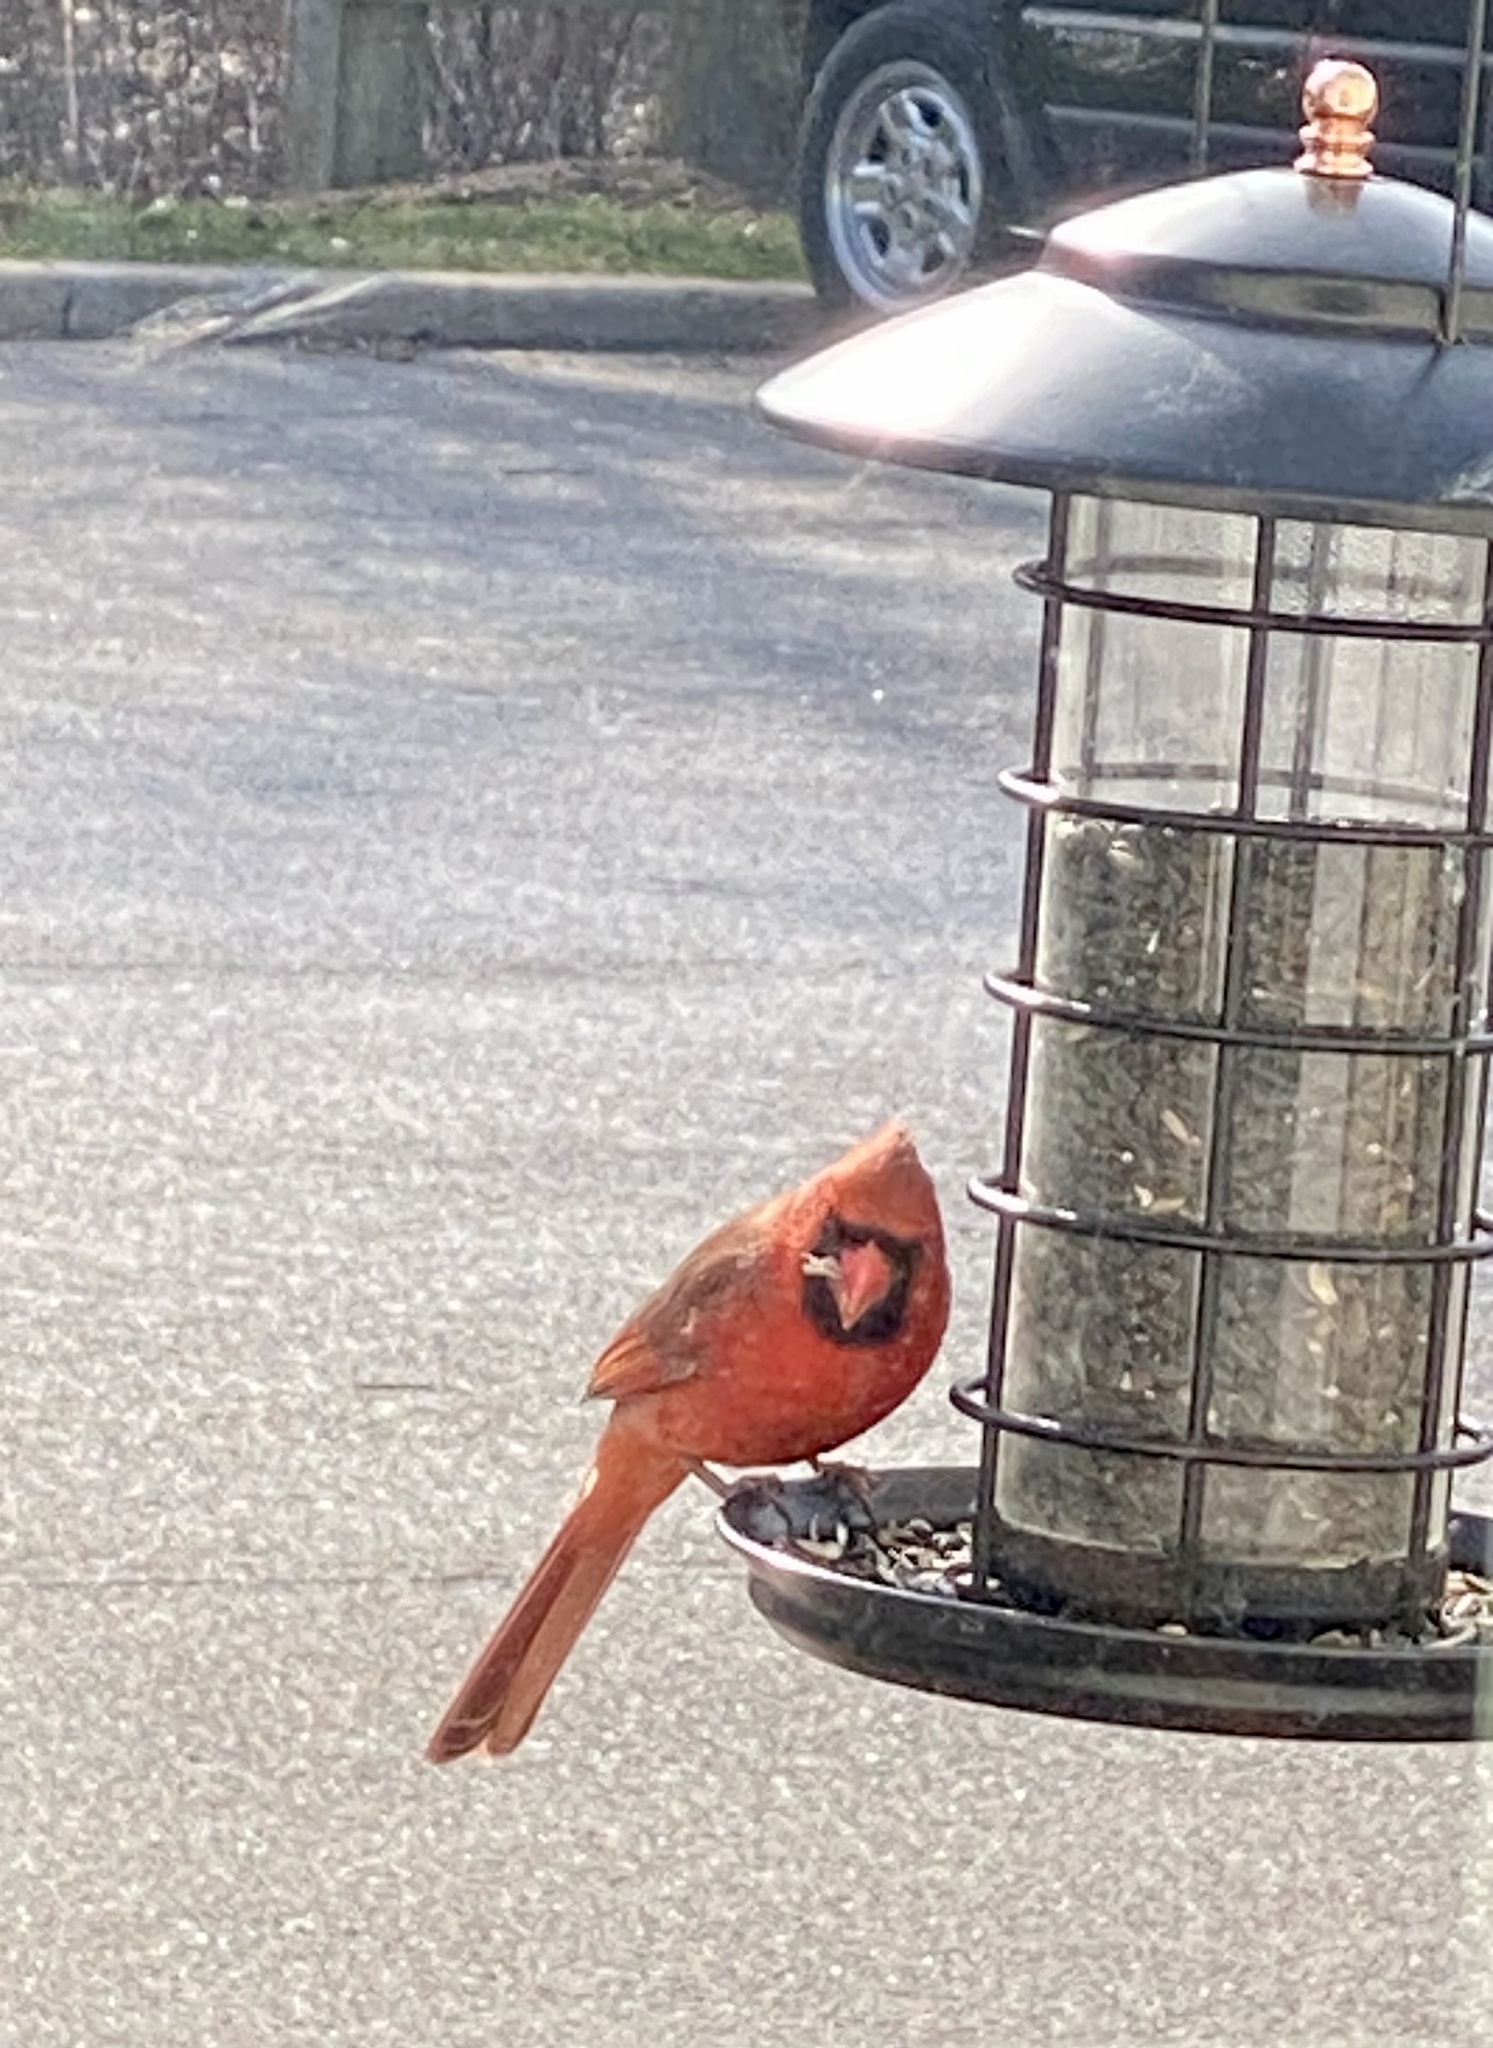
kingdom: Animalia
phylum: Chordata
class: Aves
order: Passeriformes
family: Cardinalidae
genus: Cardinalis
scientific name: Cardinalis cardinalis
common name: Northern cardinal
